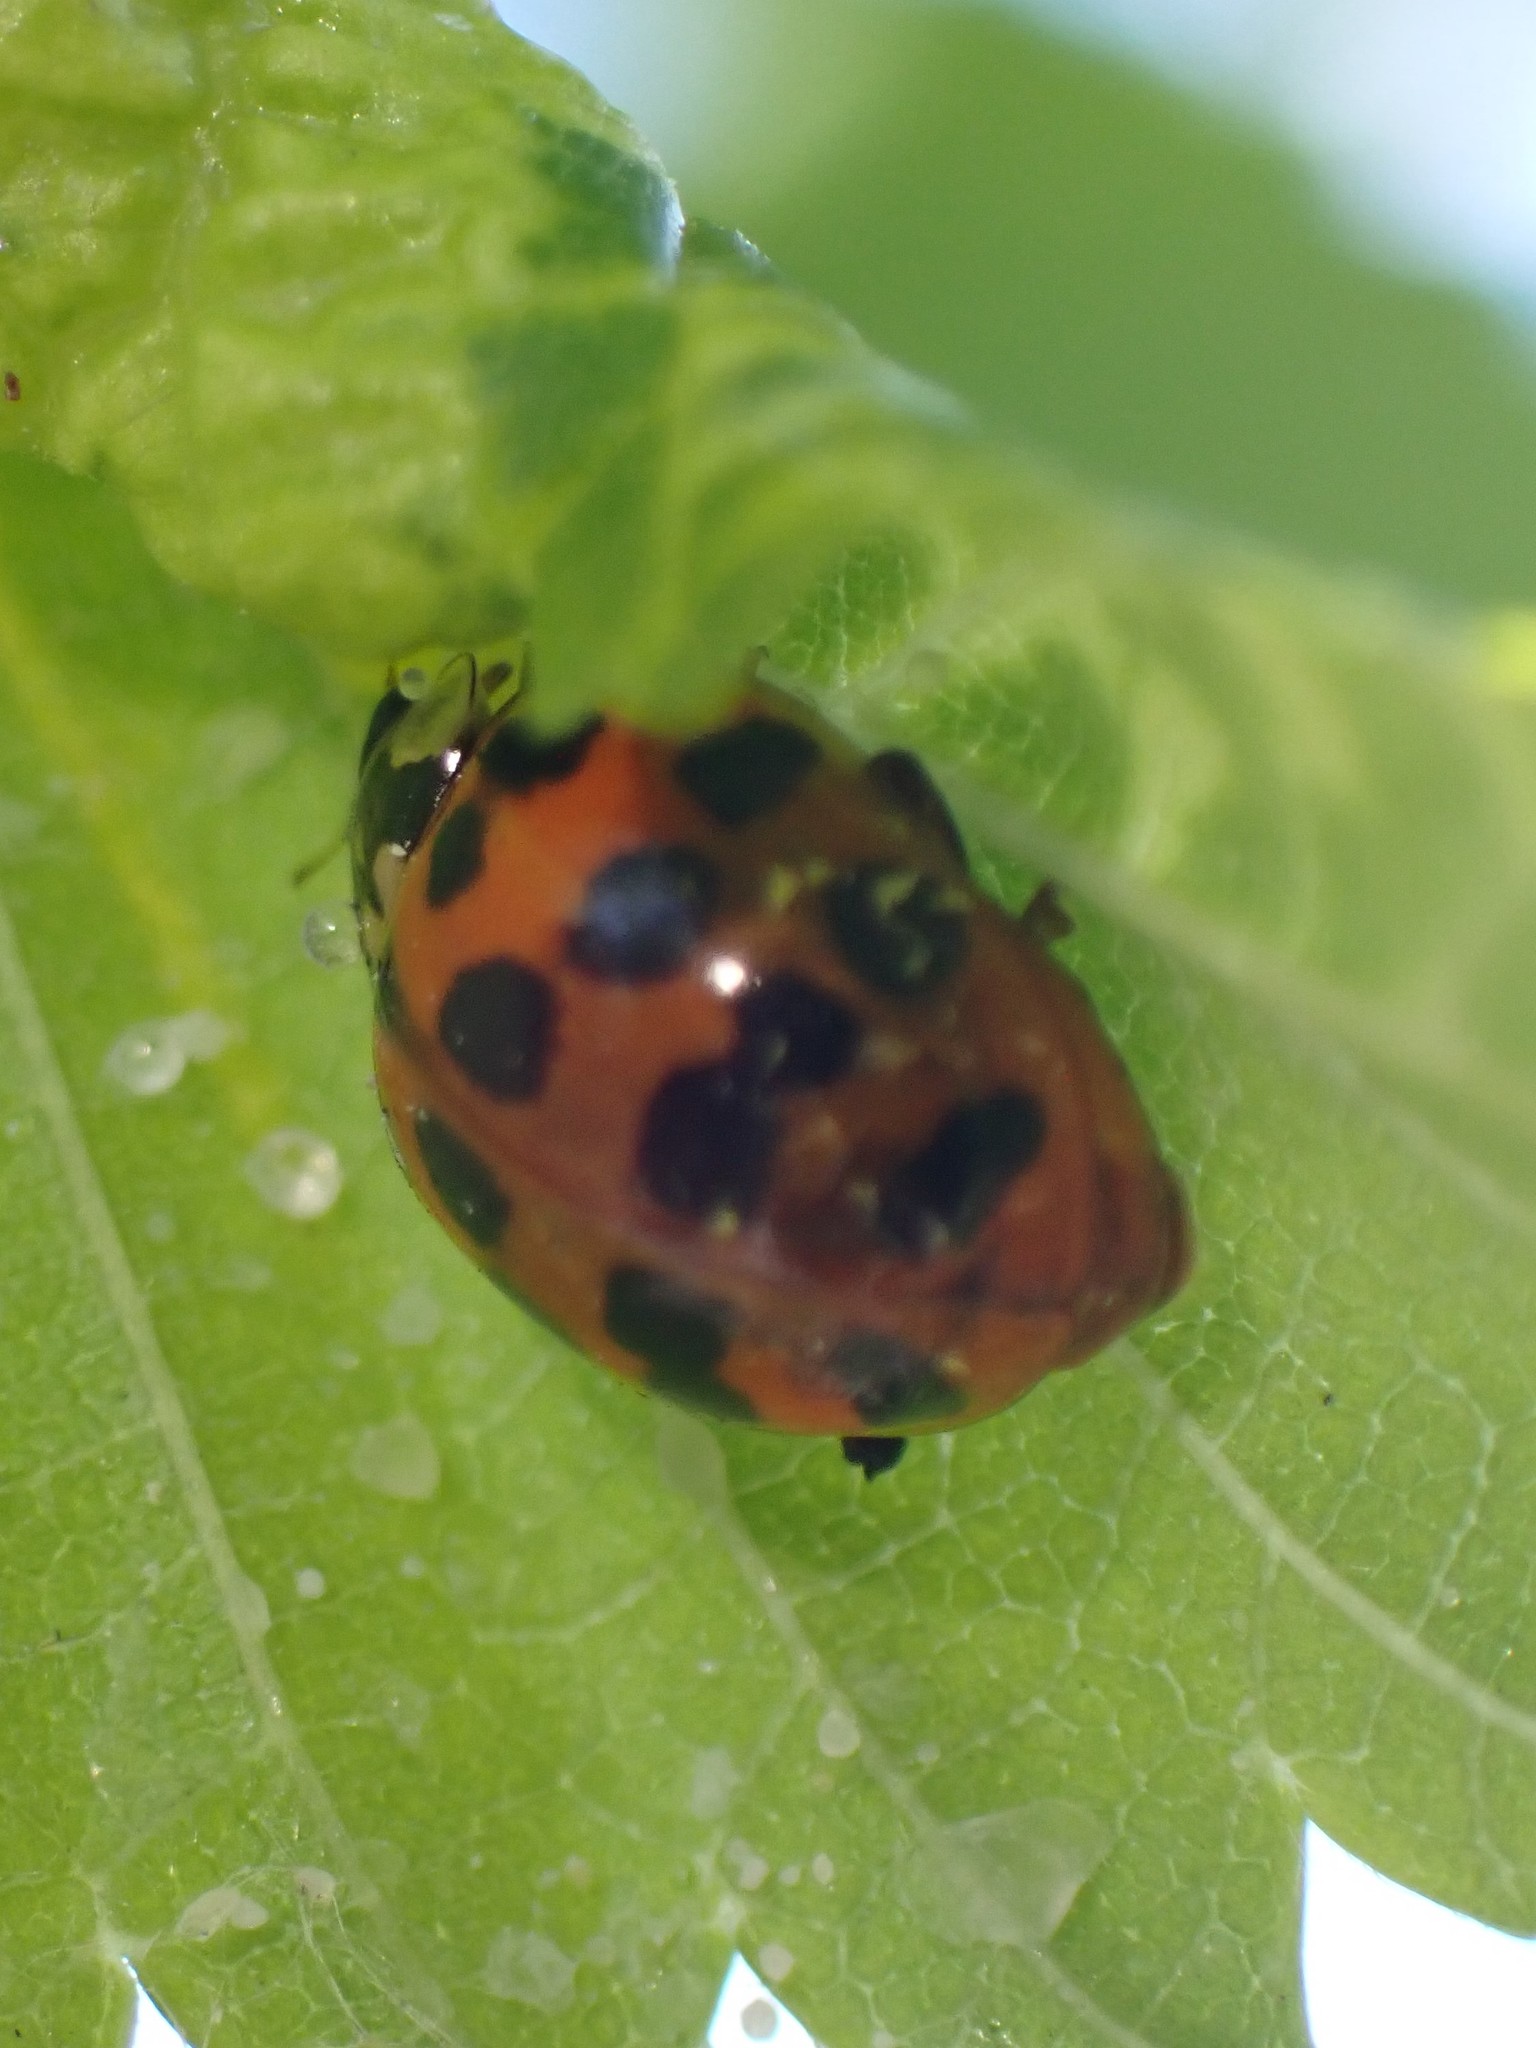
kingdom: Animalia
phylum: Arthropoda
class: Insecta
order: Coleoptera
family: Coccinellidae
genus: Harmonia
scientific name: Harmonia axyridis
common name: Harlequin ladybird
